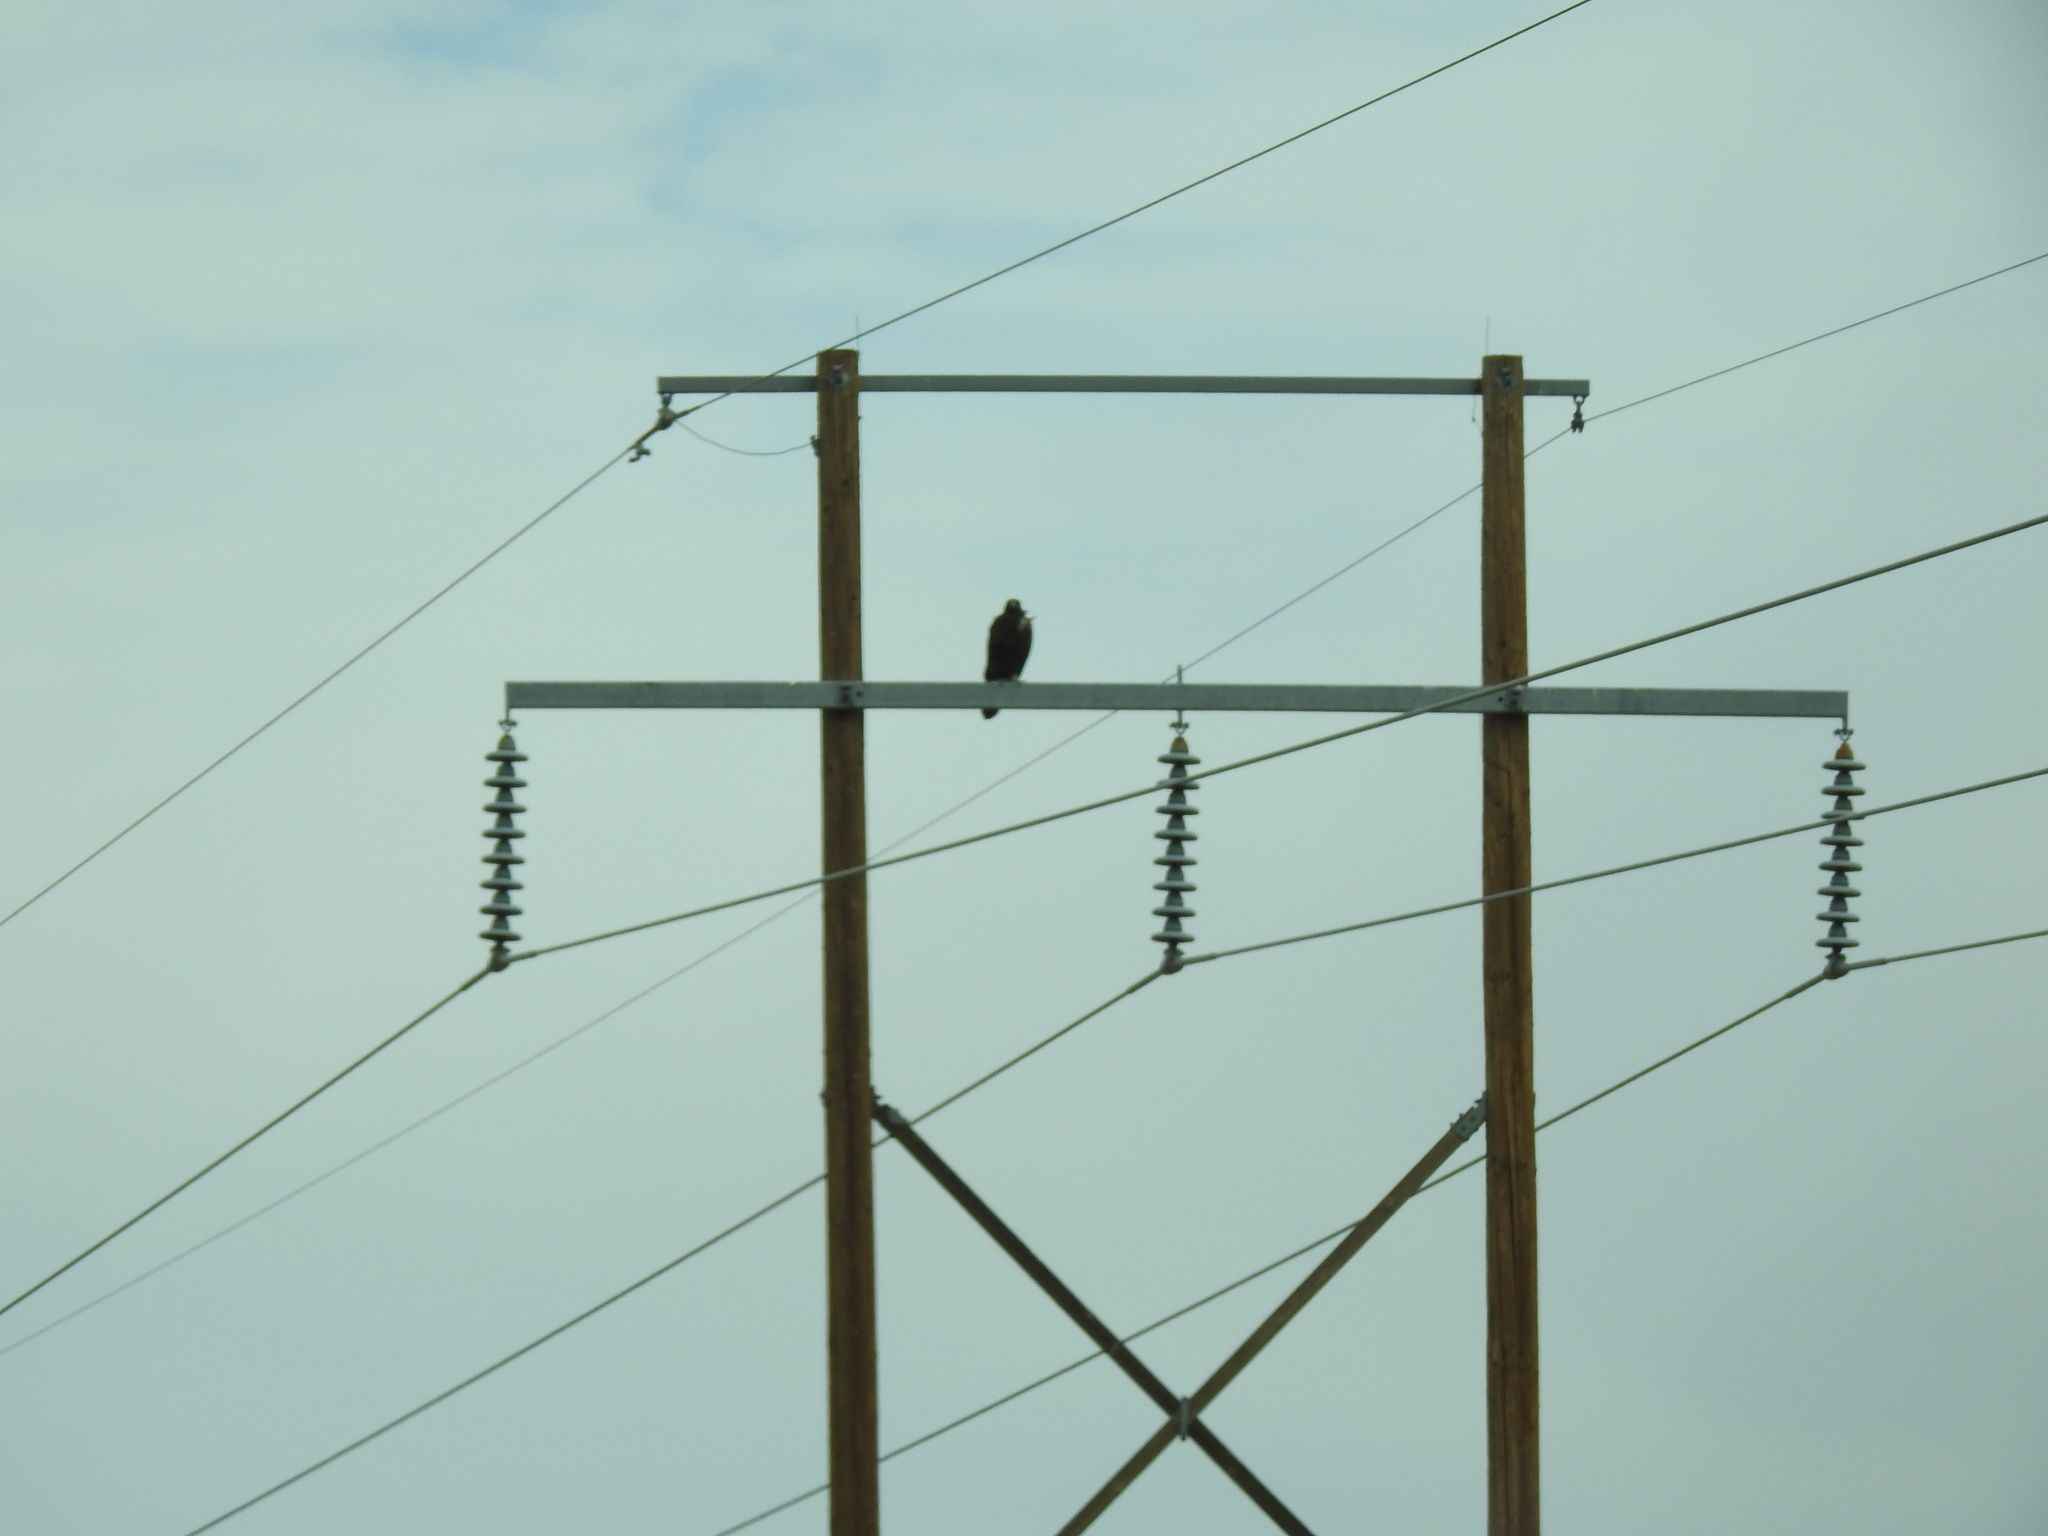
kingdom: Animalia
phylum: Chordata
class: Aves
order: Accipitriformes
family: Accipitridae
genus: Aquila
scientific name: Aquila chrysaetos
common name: Golden eagle
